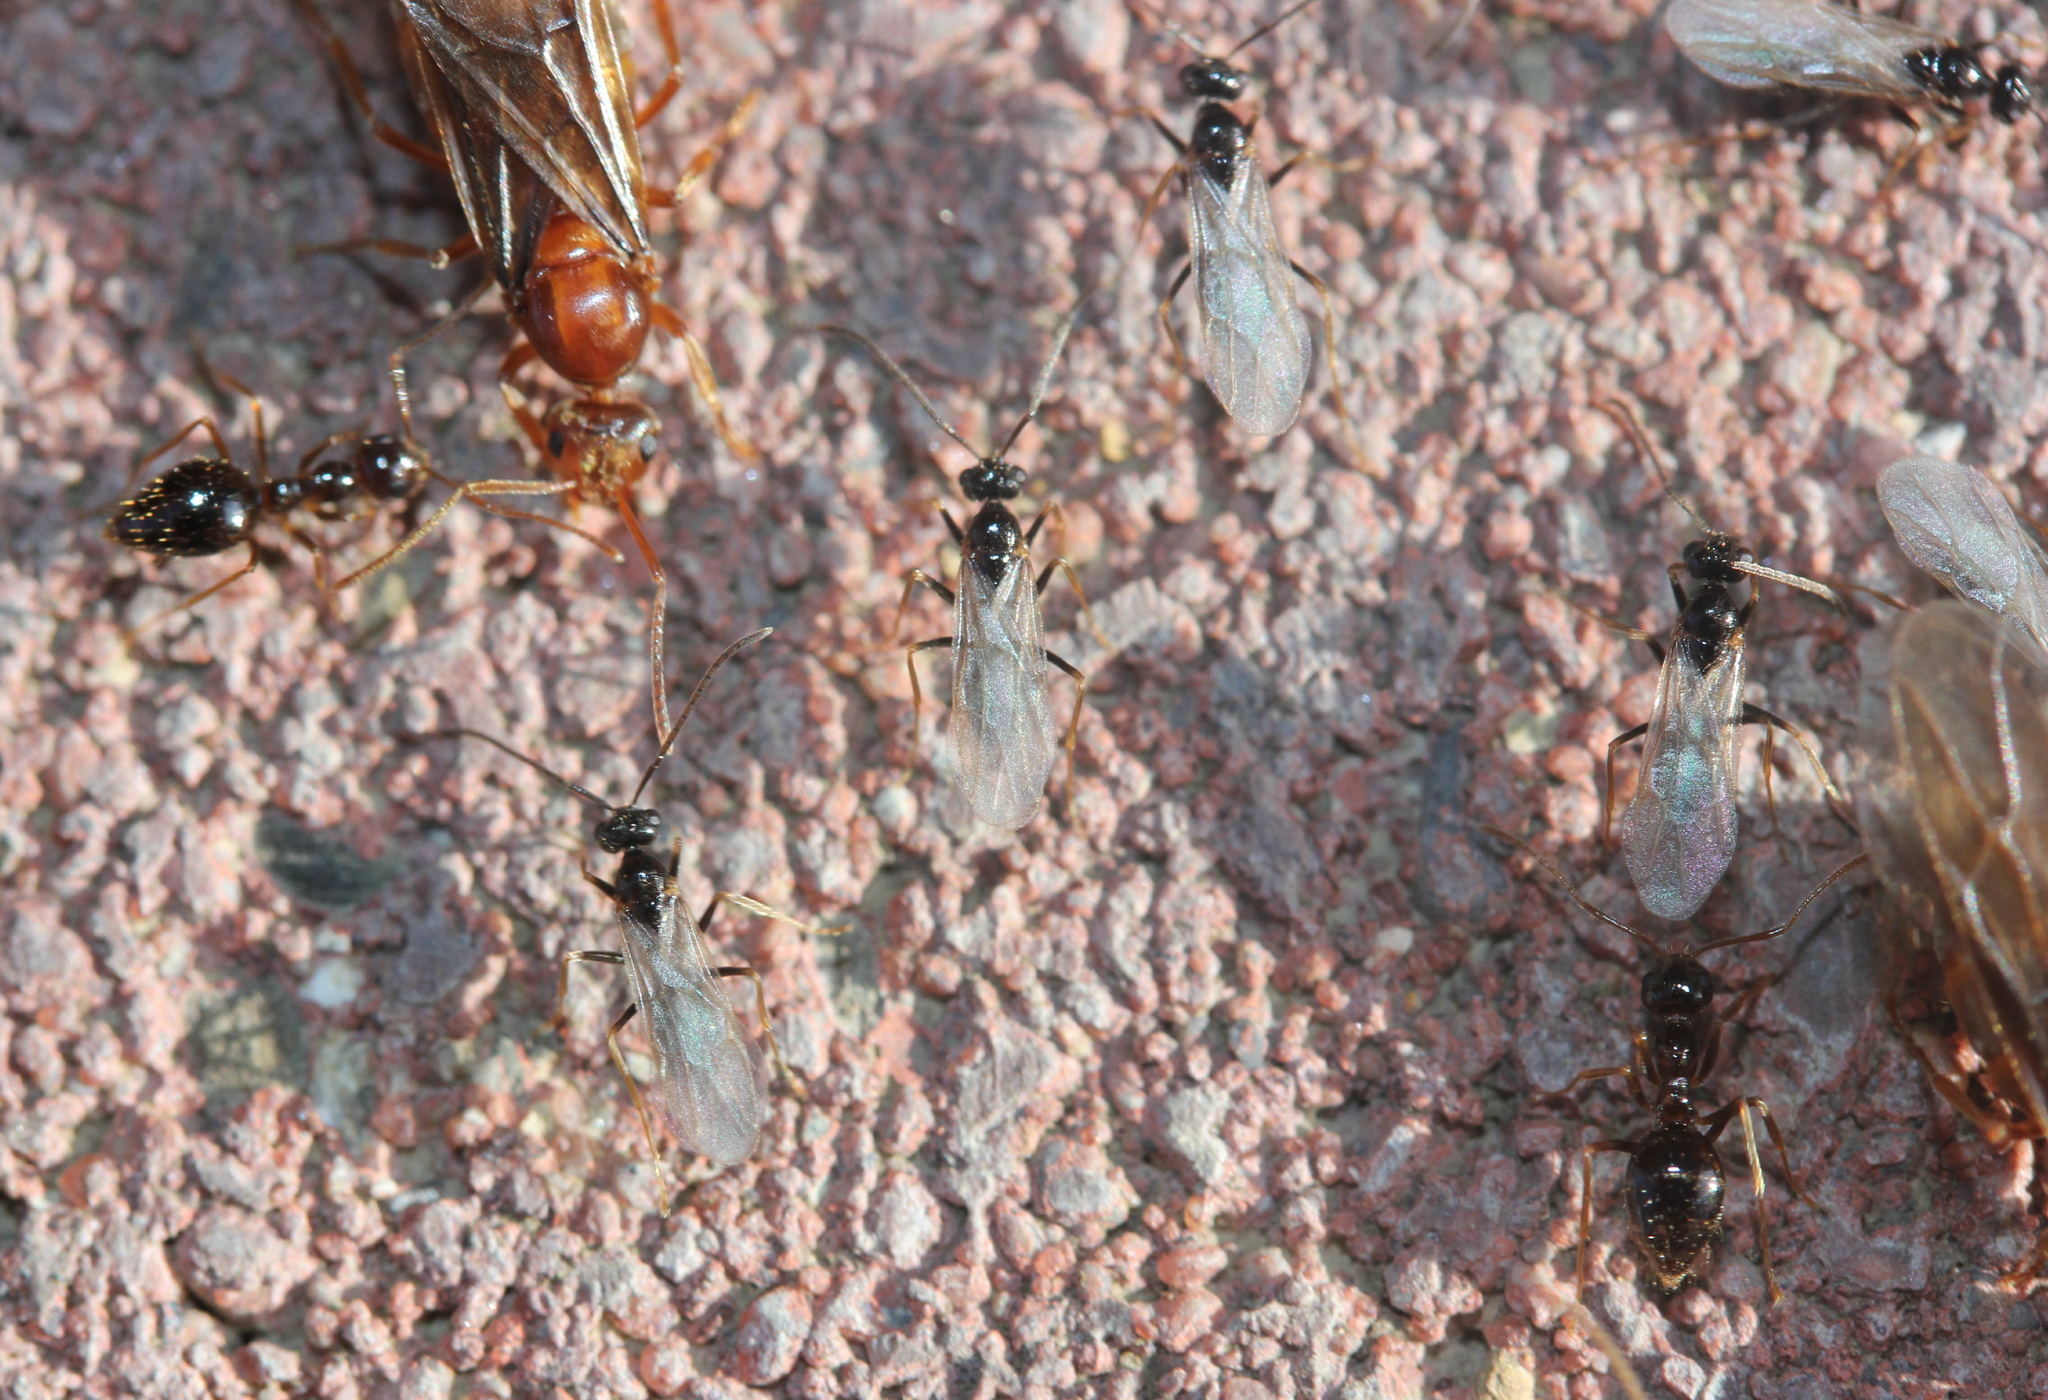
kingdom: Animalia
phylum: Arthropoda
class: Insecta
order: Hymenoptera
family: Formicidae
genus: Prenolepis
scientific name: Prenolepis imparis
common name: Small honey ant
